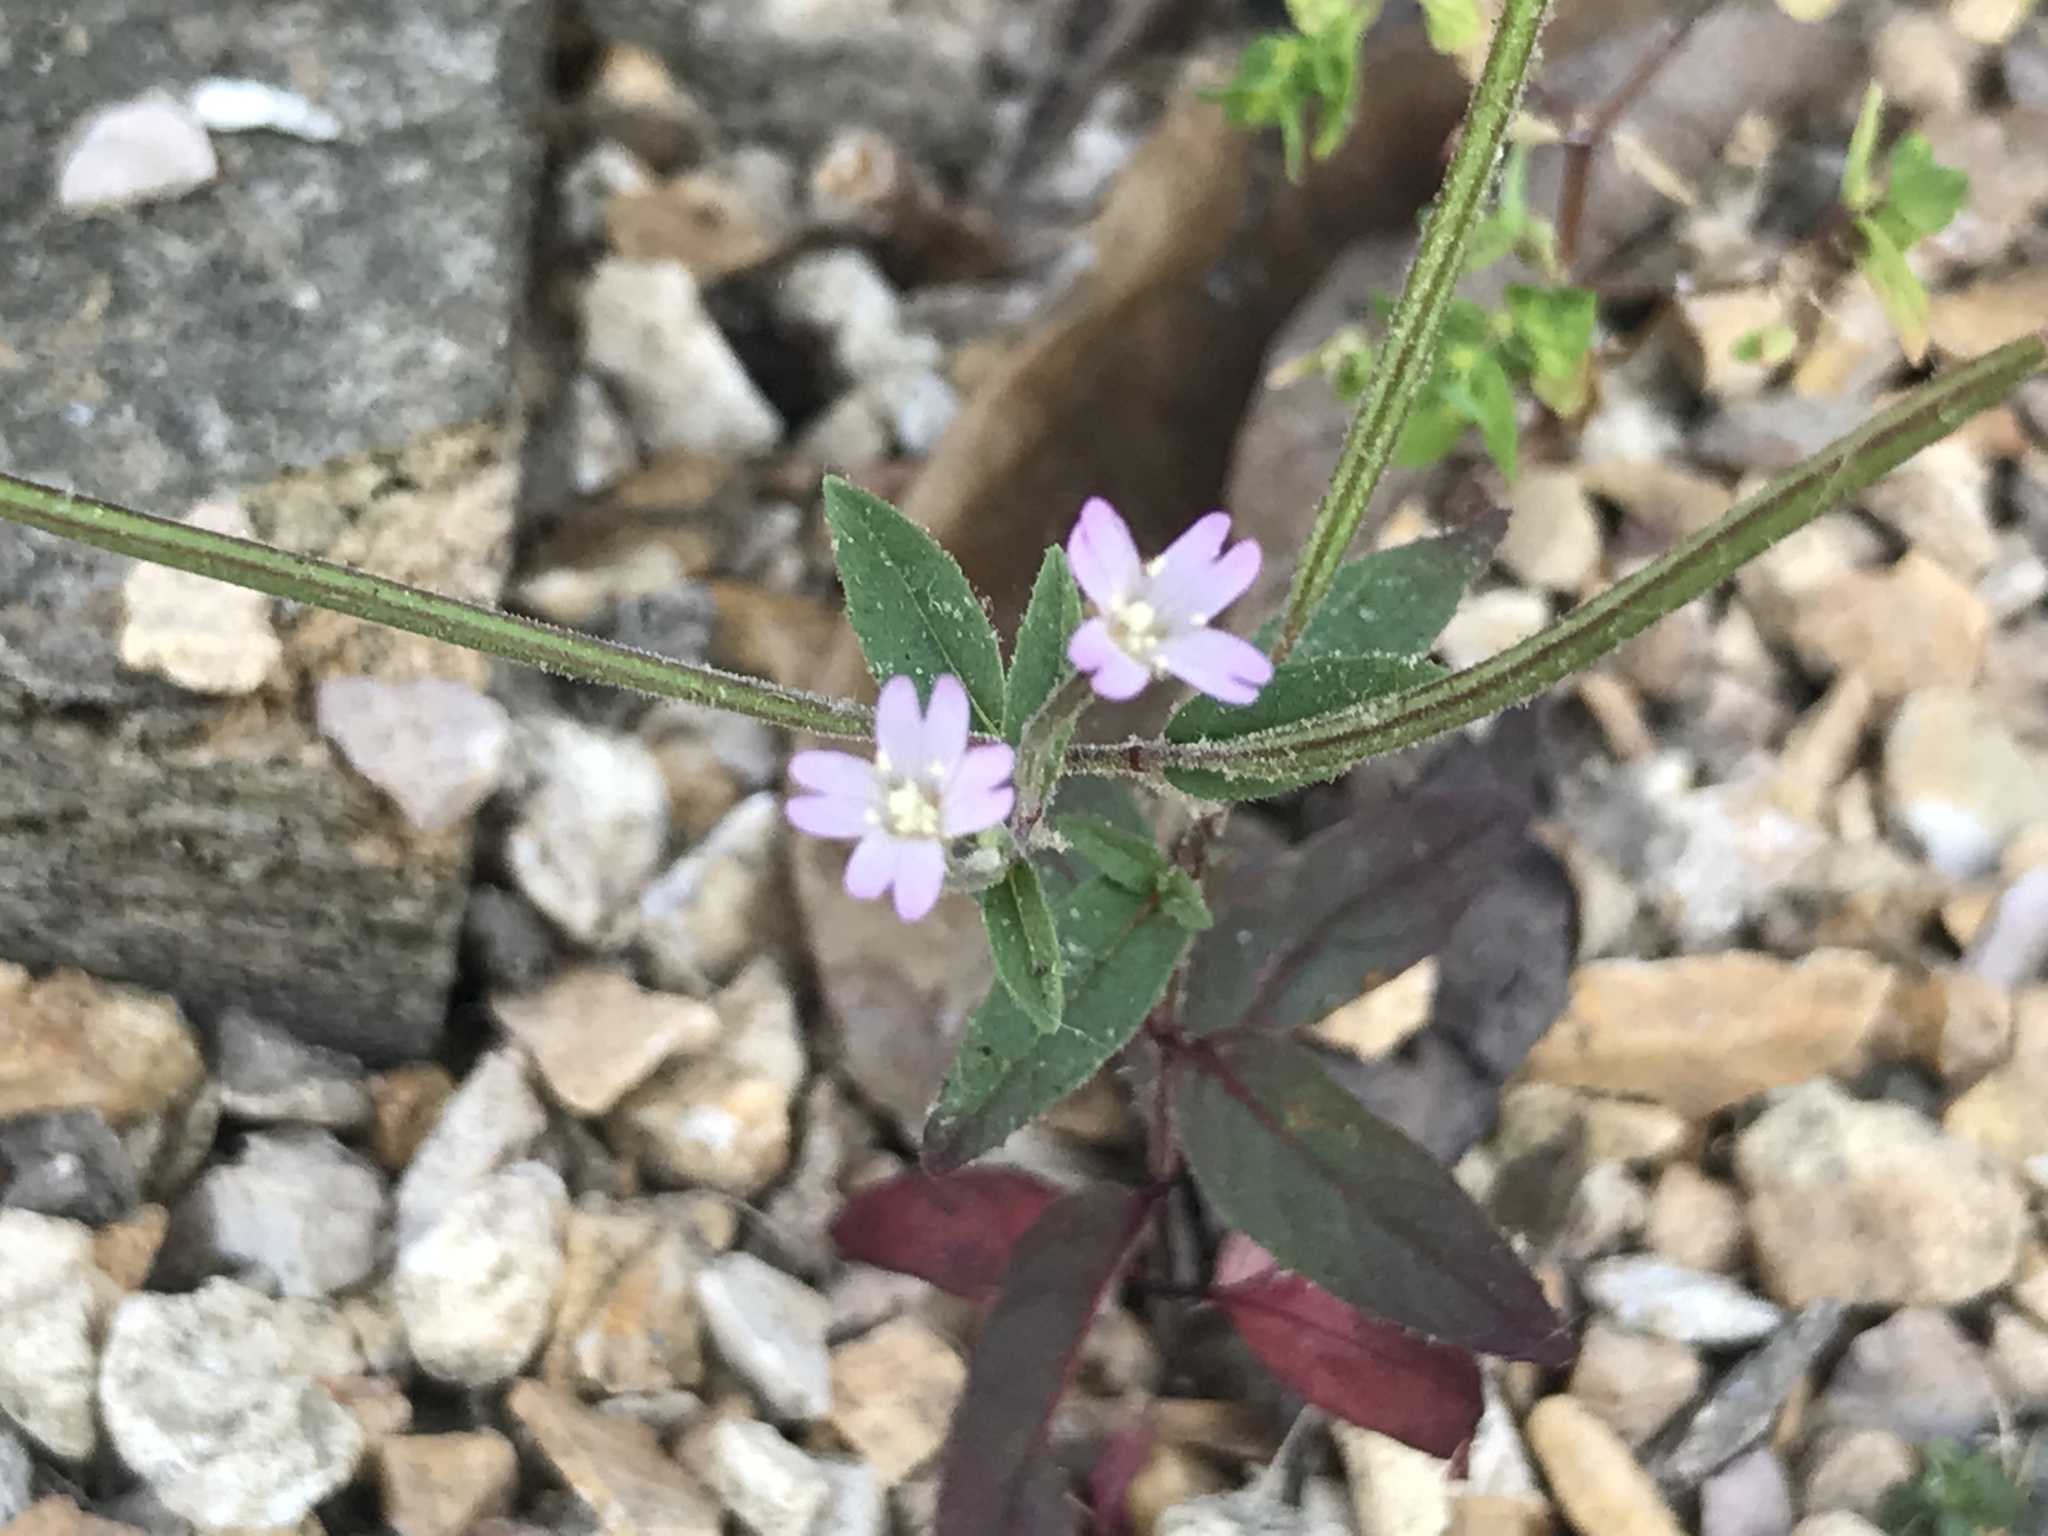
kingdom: Plantae
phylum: Tracheophyta
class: Magnoliopsida
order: Myrtales
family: Onagraceae
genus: Epilobium
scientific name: Epilobium ciliatum
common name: American willowherb
